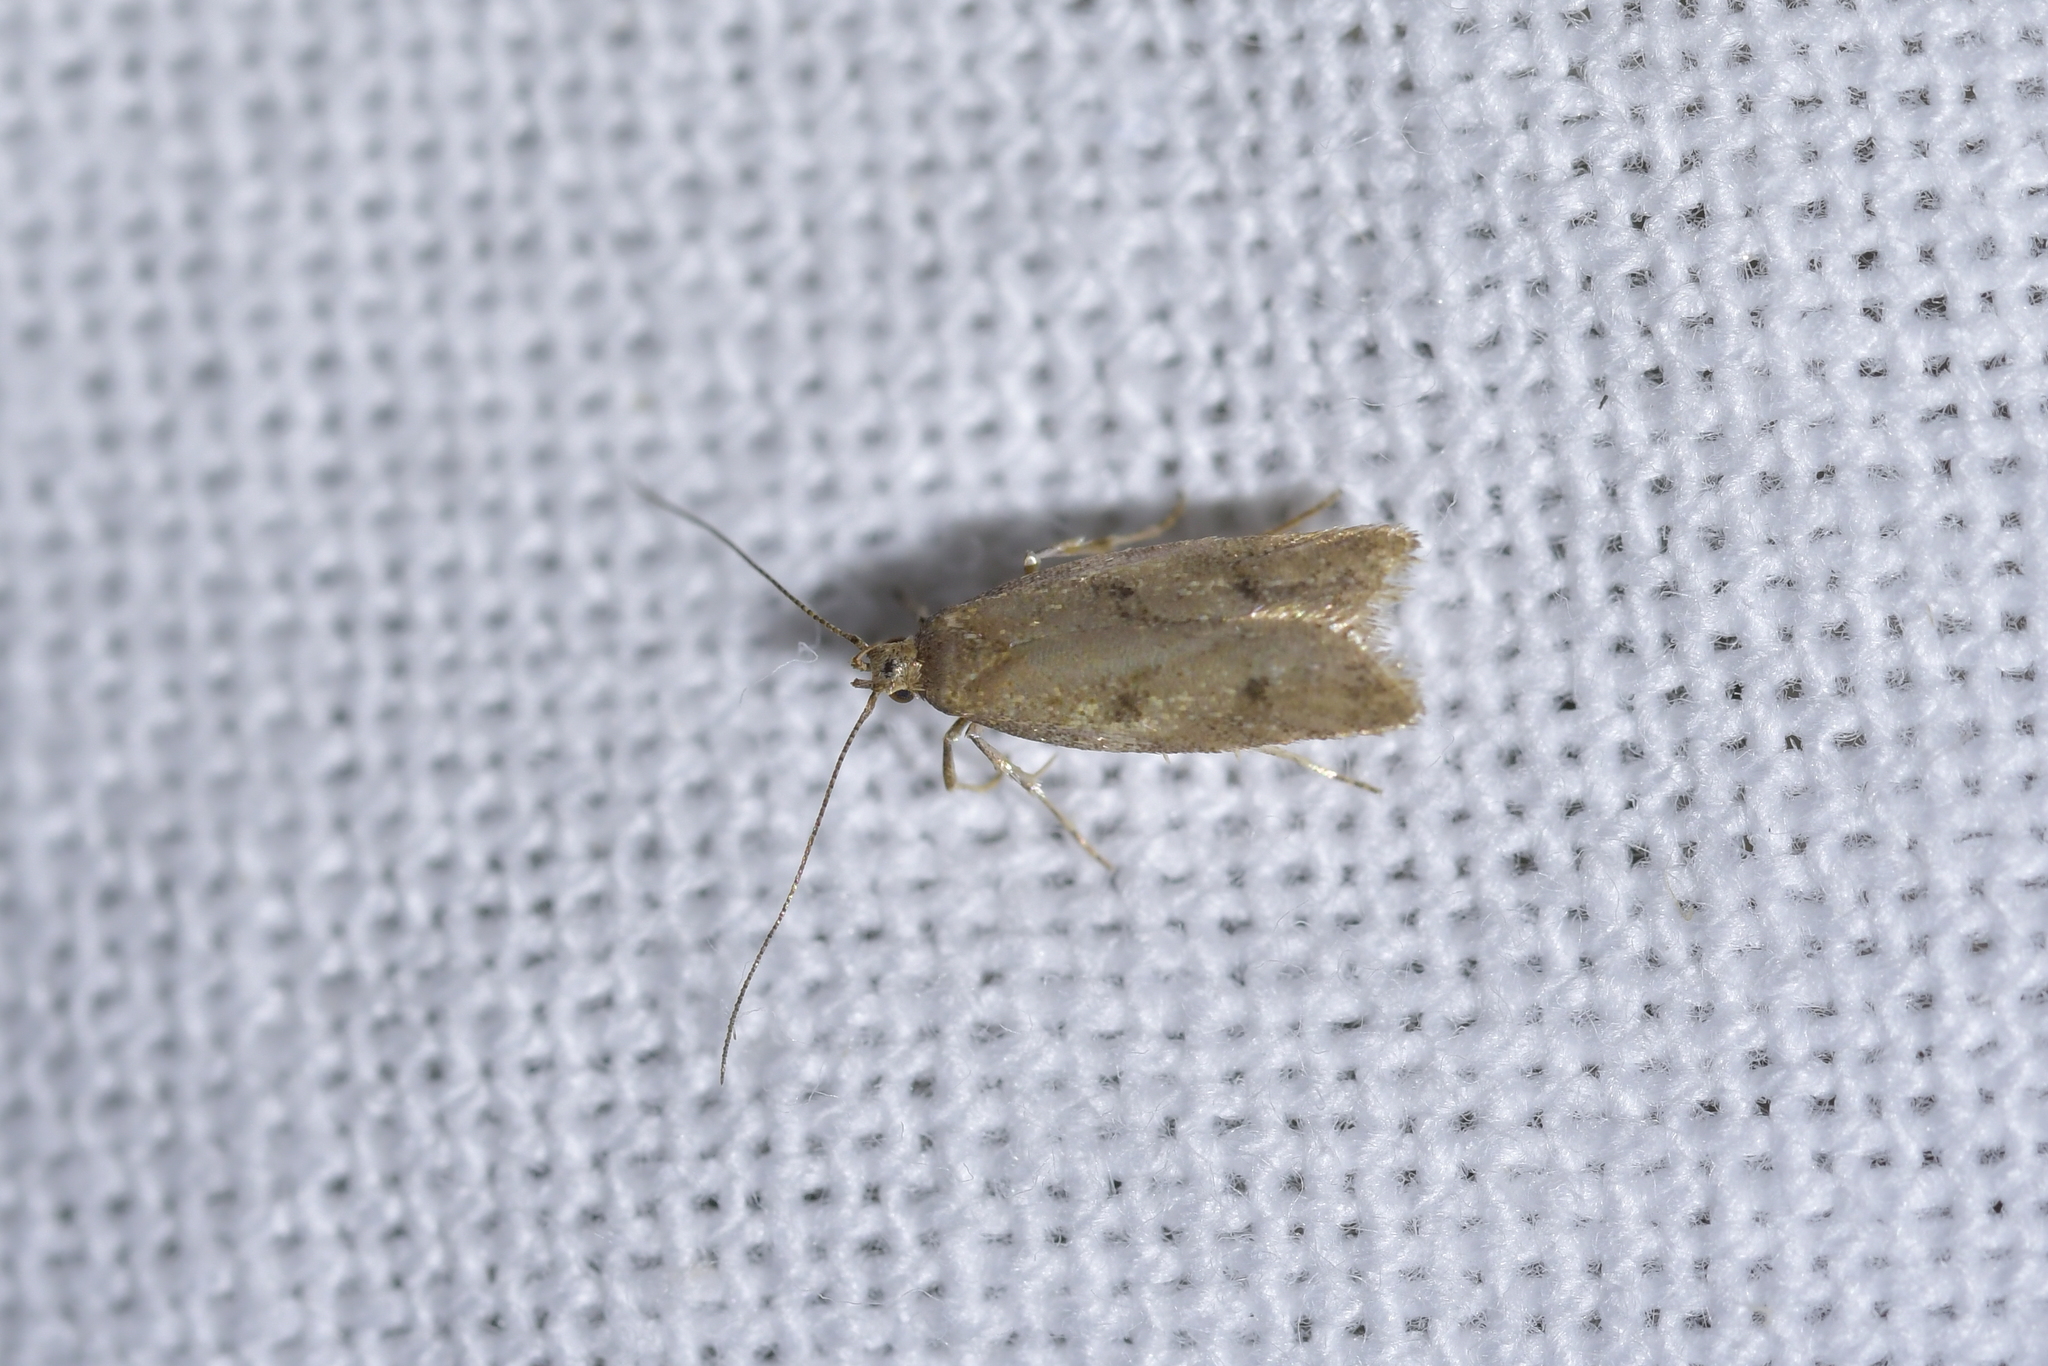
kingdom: Animalia
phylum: Arthropoda
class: Insecta
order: Lepidoptera
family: Oecophoridae
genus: Gymnobathra
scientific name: Gymnobathra tholodella
